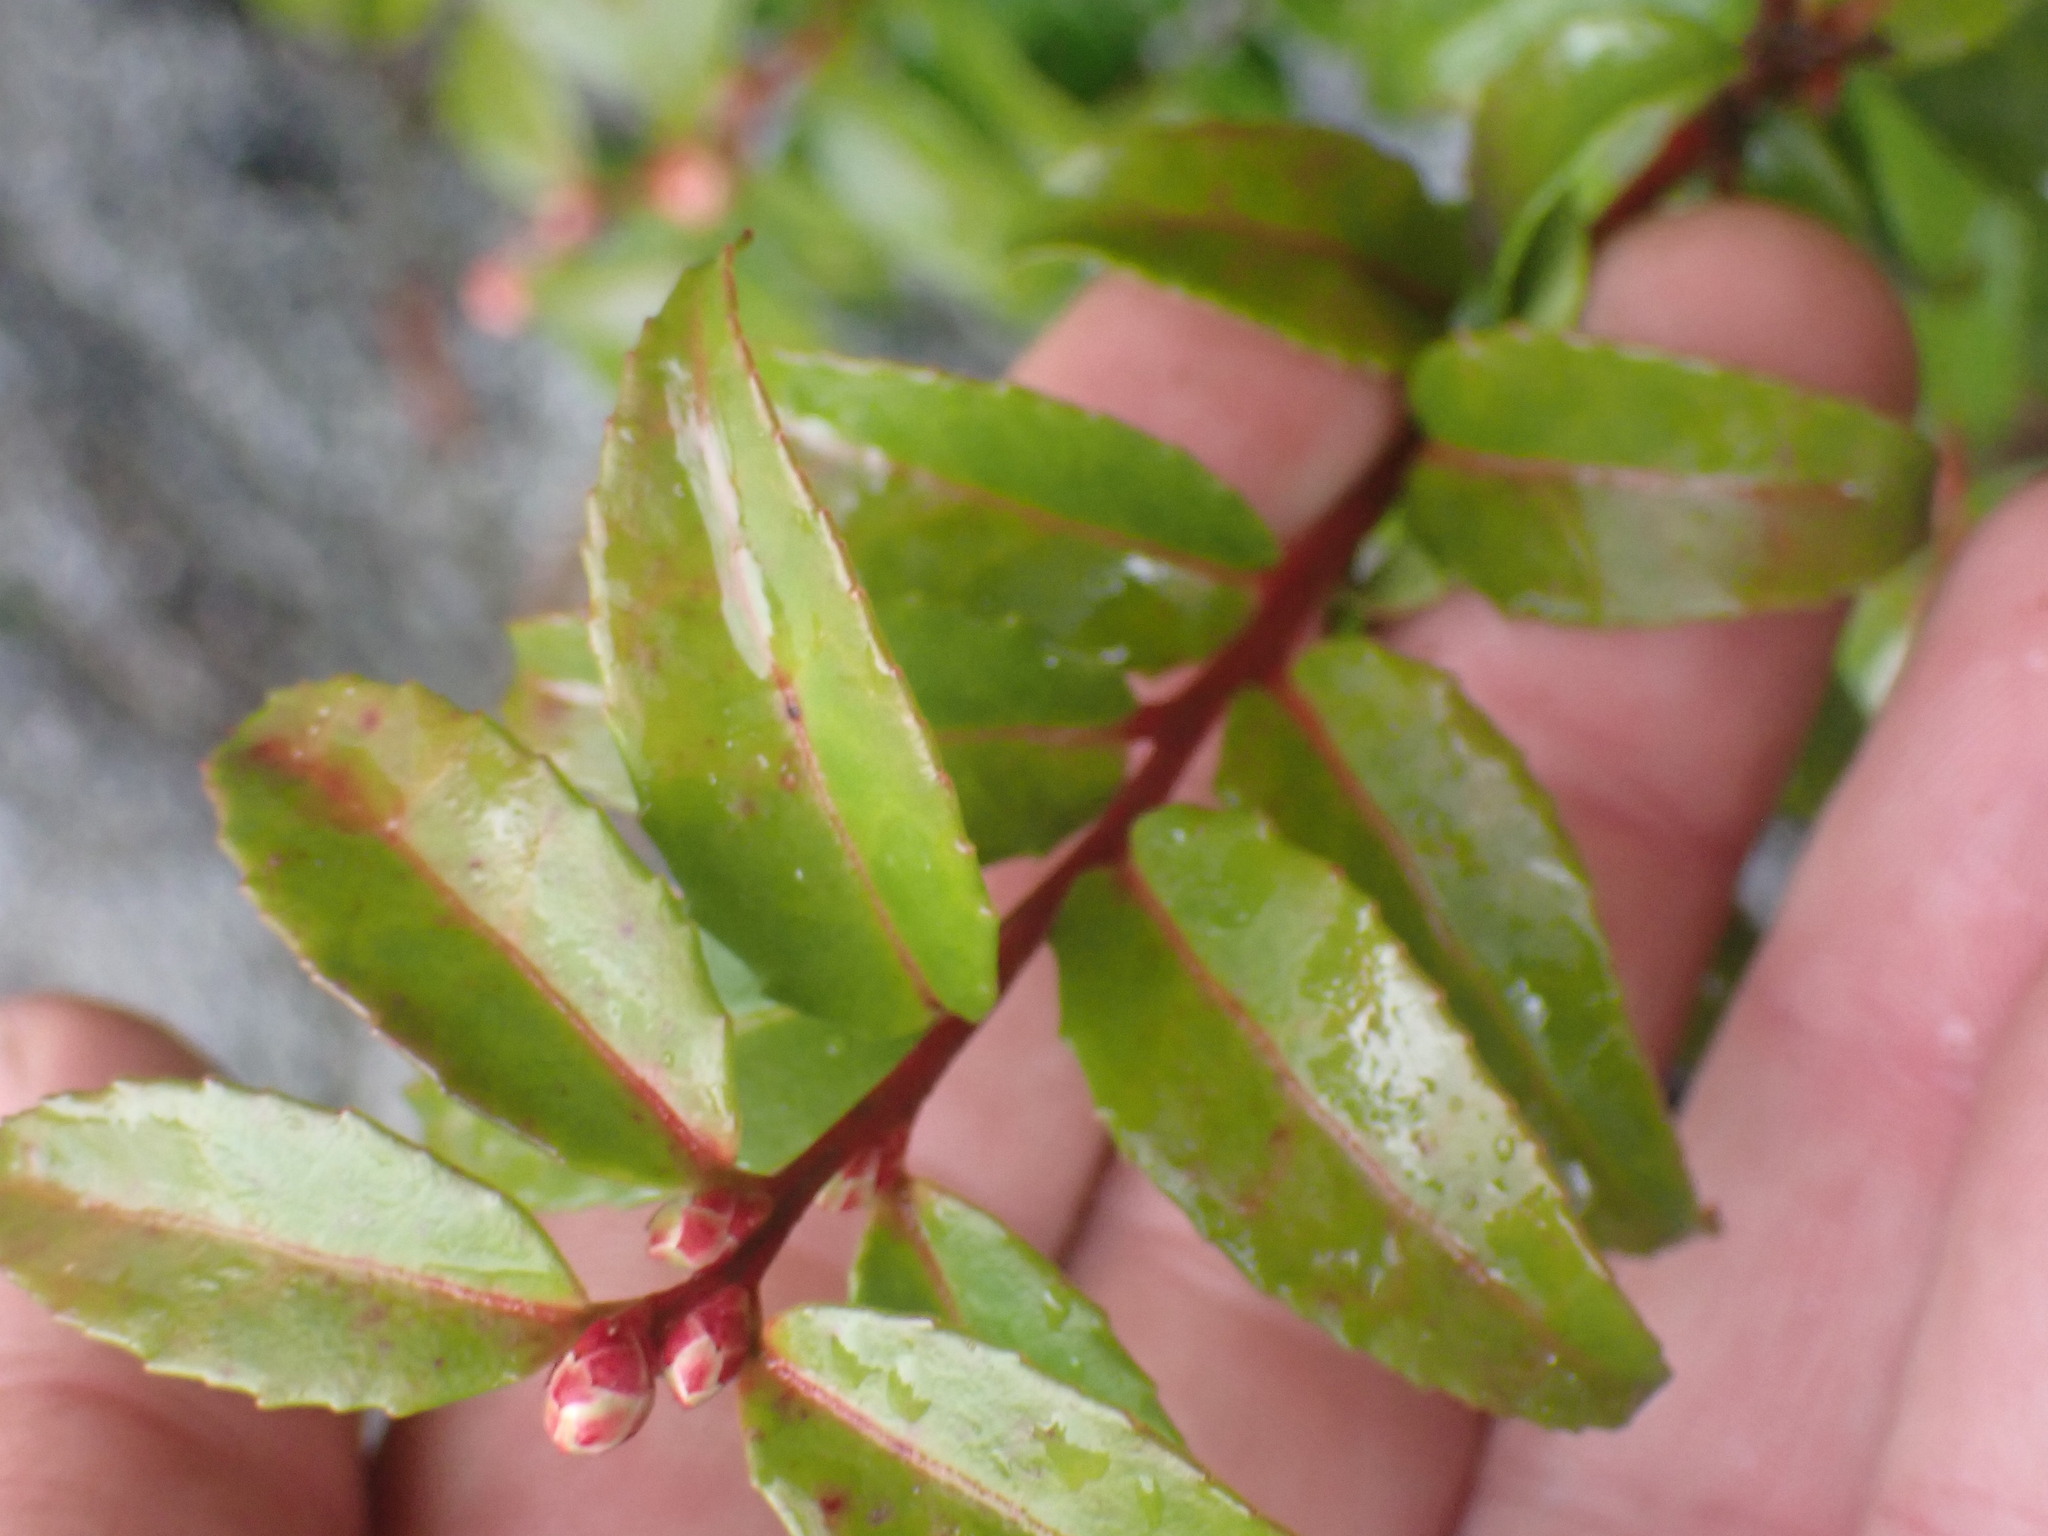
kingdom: Plantae
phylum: Tracheophyta
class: Magnoliopsida
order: Ericales
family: Ericaceae
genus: Vaccinium
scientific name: Vaccinium ovatum
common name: California-huckleberry
